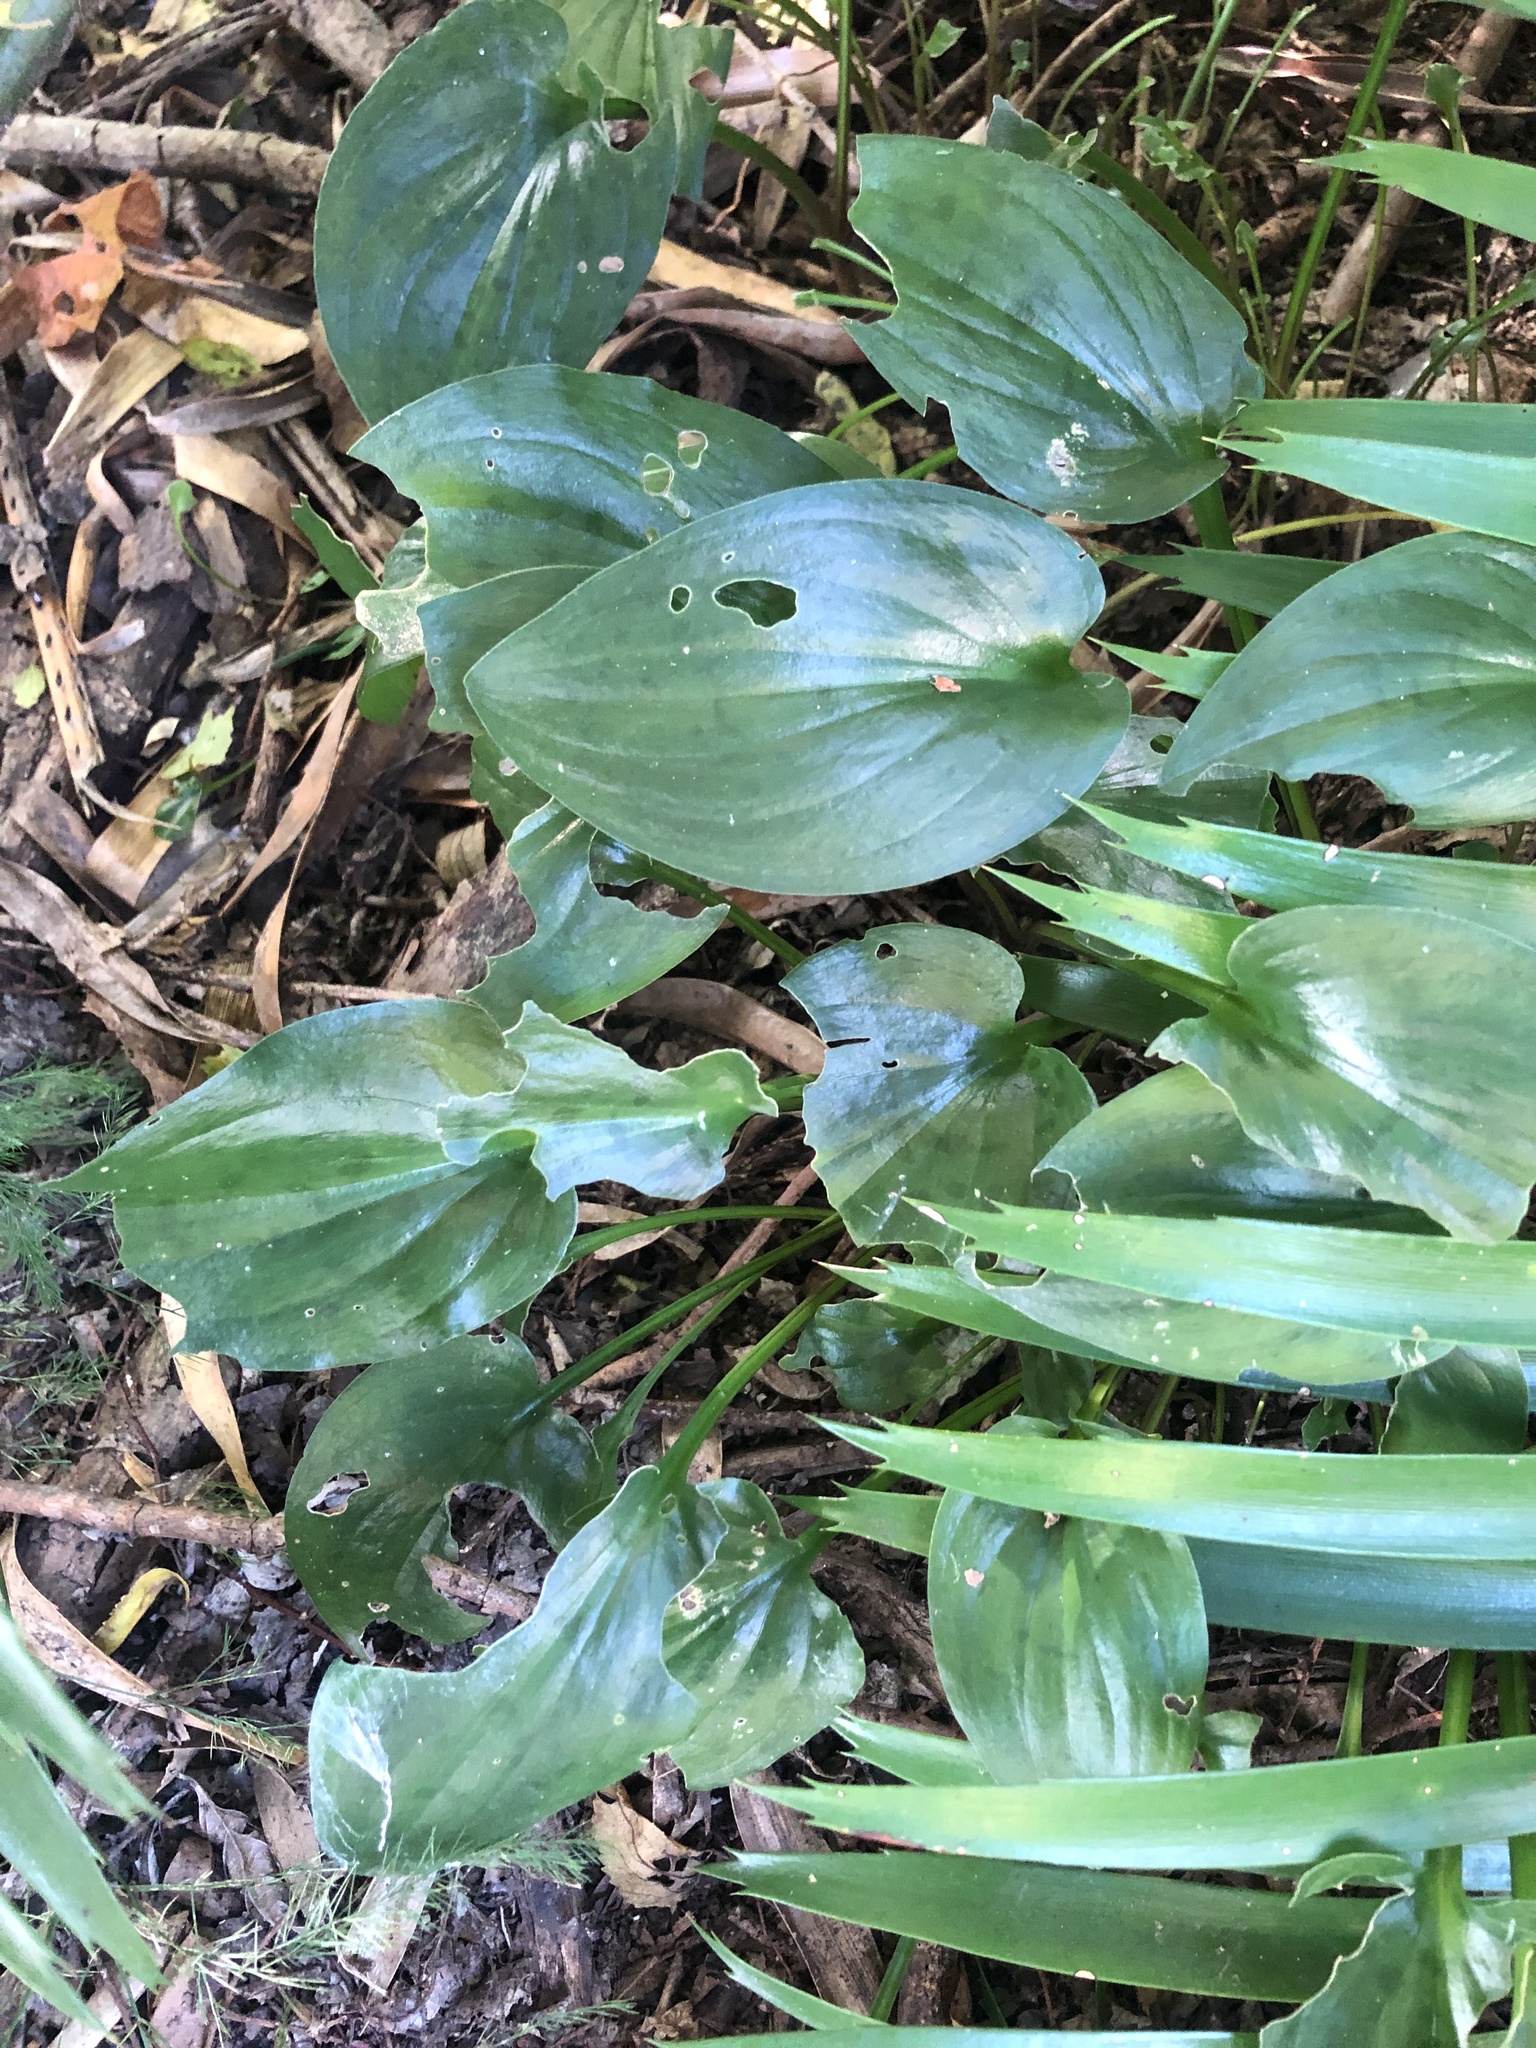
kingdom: Plantae
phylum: Tracheophyta
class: Liliopsida
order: Asparagales
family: Asparagaceae
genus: Drimiopsis
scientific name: Drimiopsis maculata
